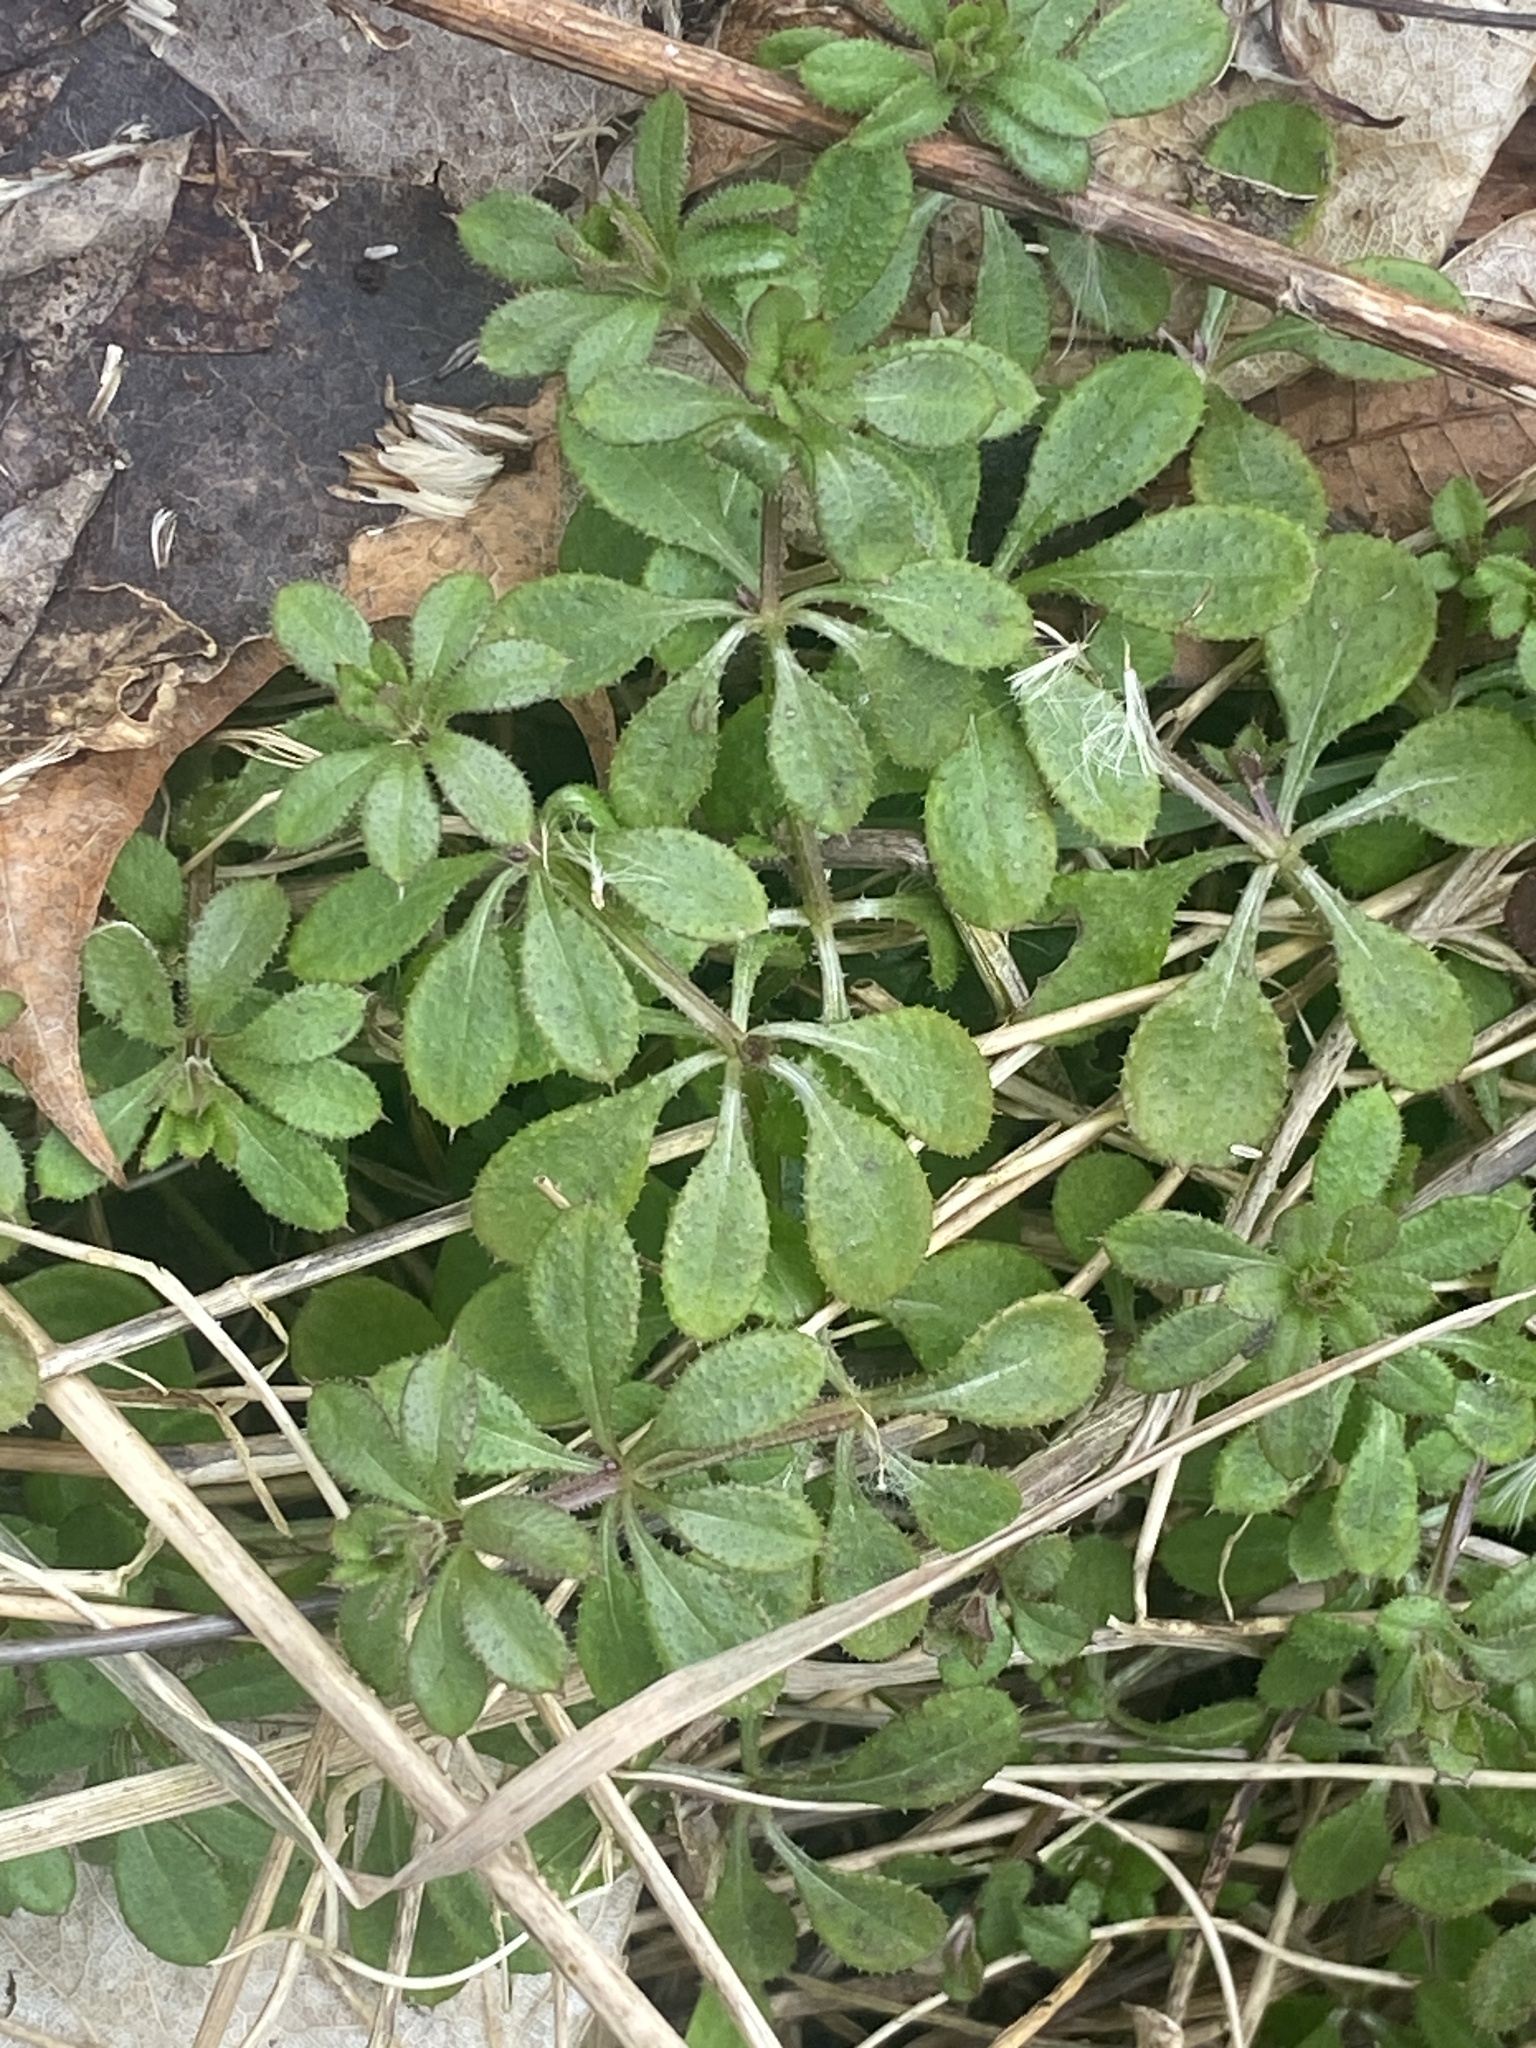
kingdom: Plantae
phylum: Tracheophyta
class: Magnoliopsida
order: Gentianales
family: Rubiaceae
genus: Galium
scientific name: Galium aparine
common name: Cleavers
